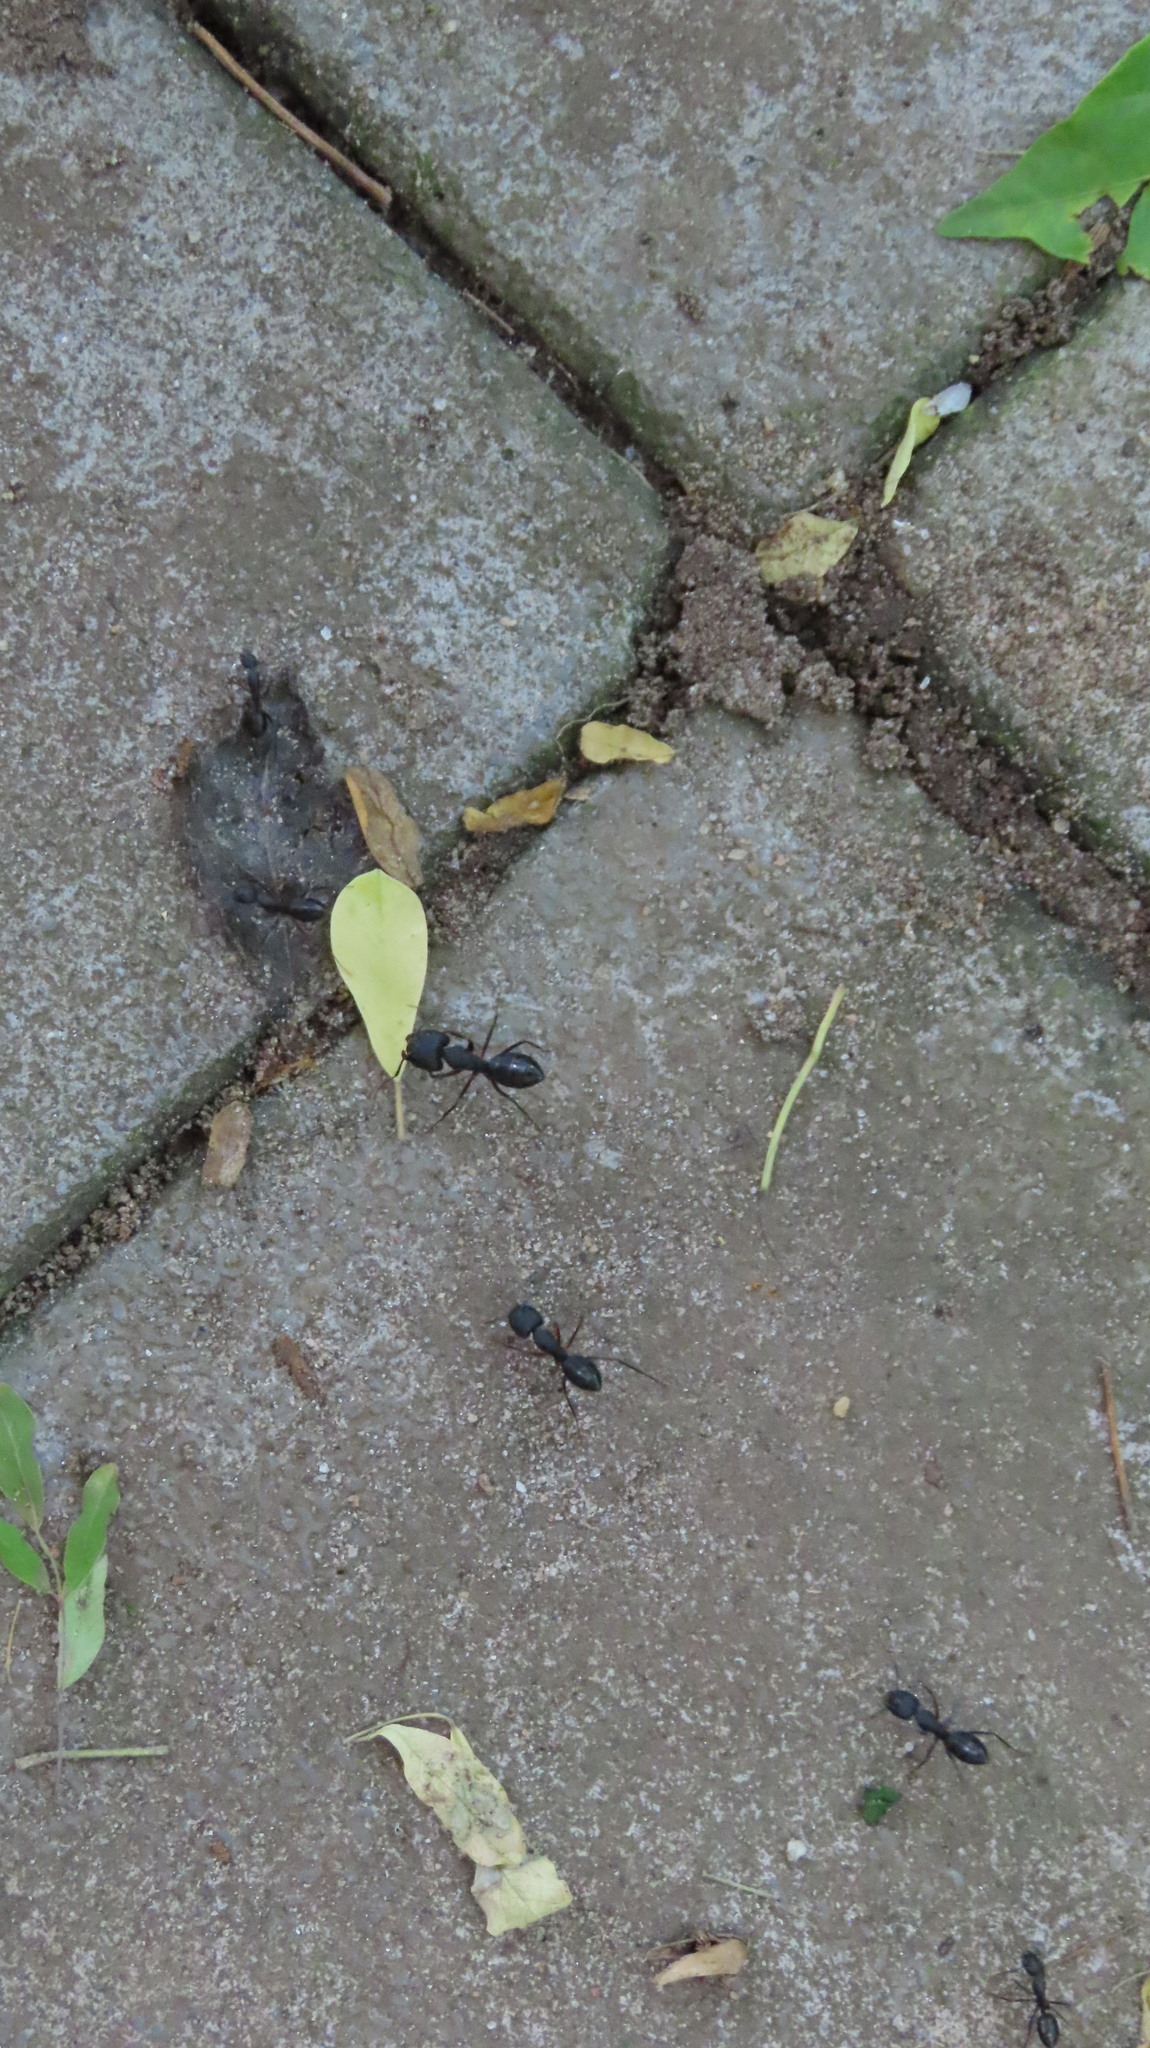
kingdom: Animalia
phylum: Arthropoda
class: Insecta
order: Hymenoptera
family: Formicidae
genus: Camponotus
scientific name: Camponotus compressus
